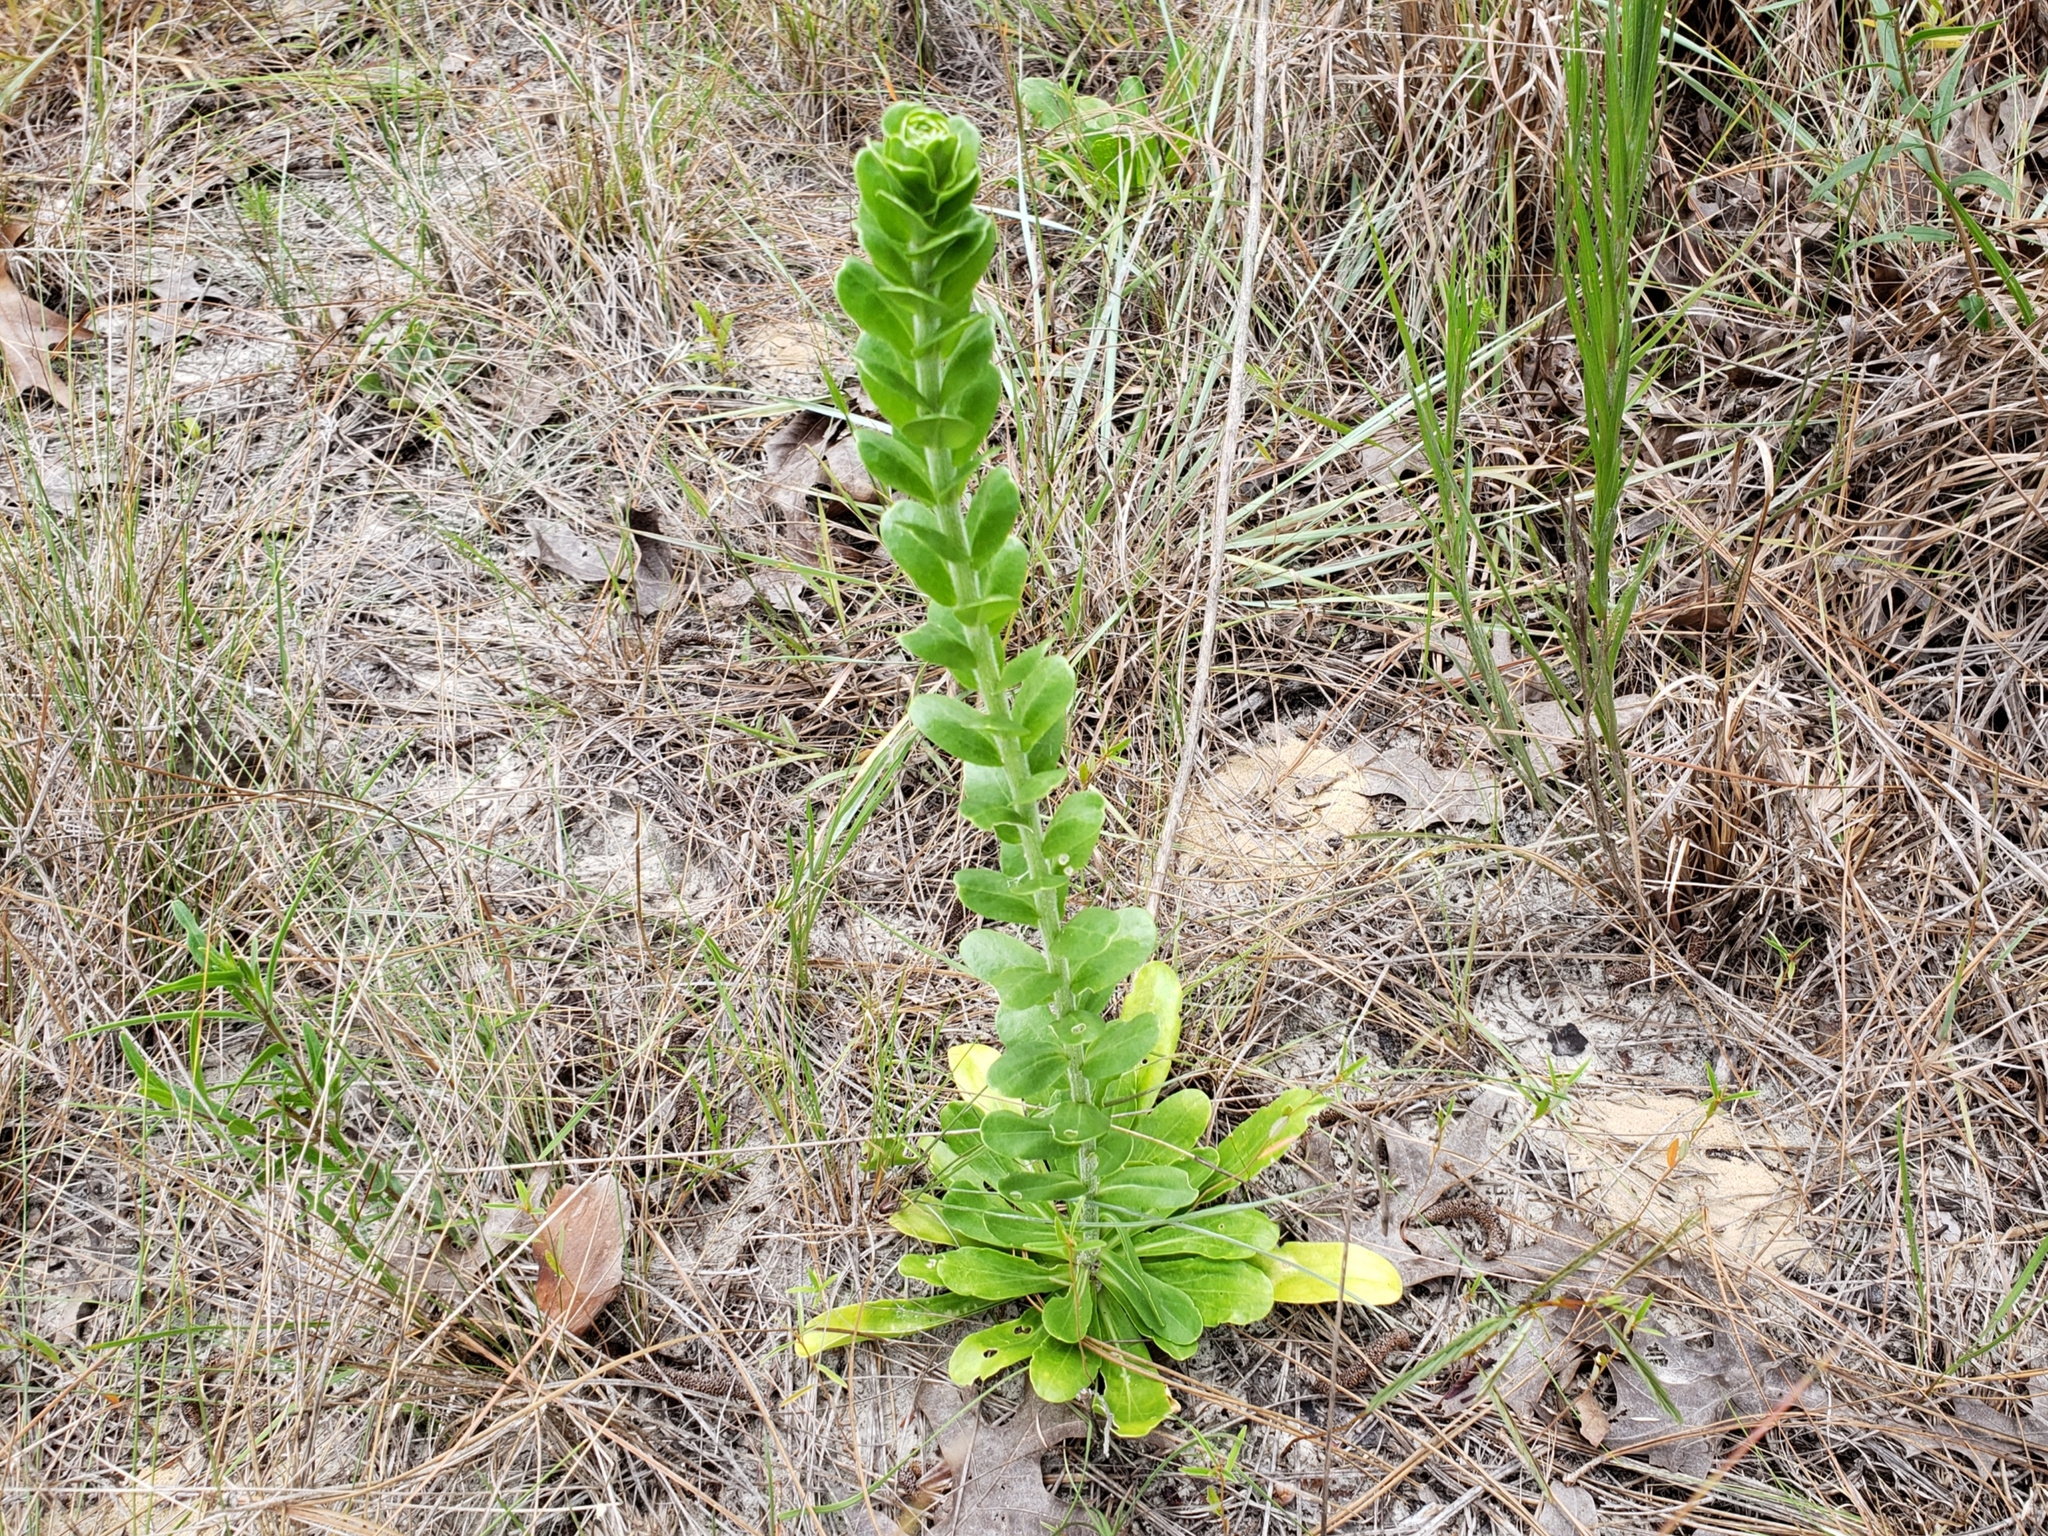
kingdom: Plantae
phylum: Tracheophyta
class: Magnoliopsida
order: Malpighiales
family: Euphorbiaceae
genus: Stillingia
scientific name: Stillingia sylvatica
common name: Queen's-delight
